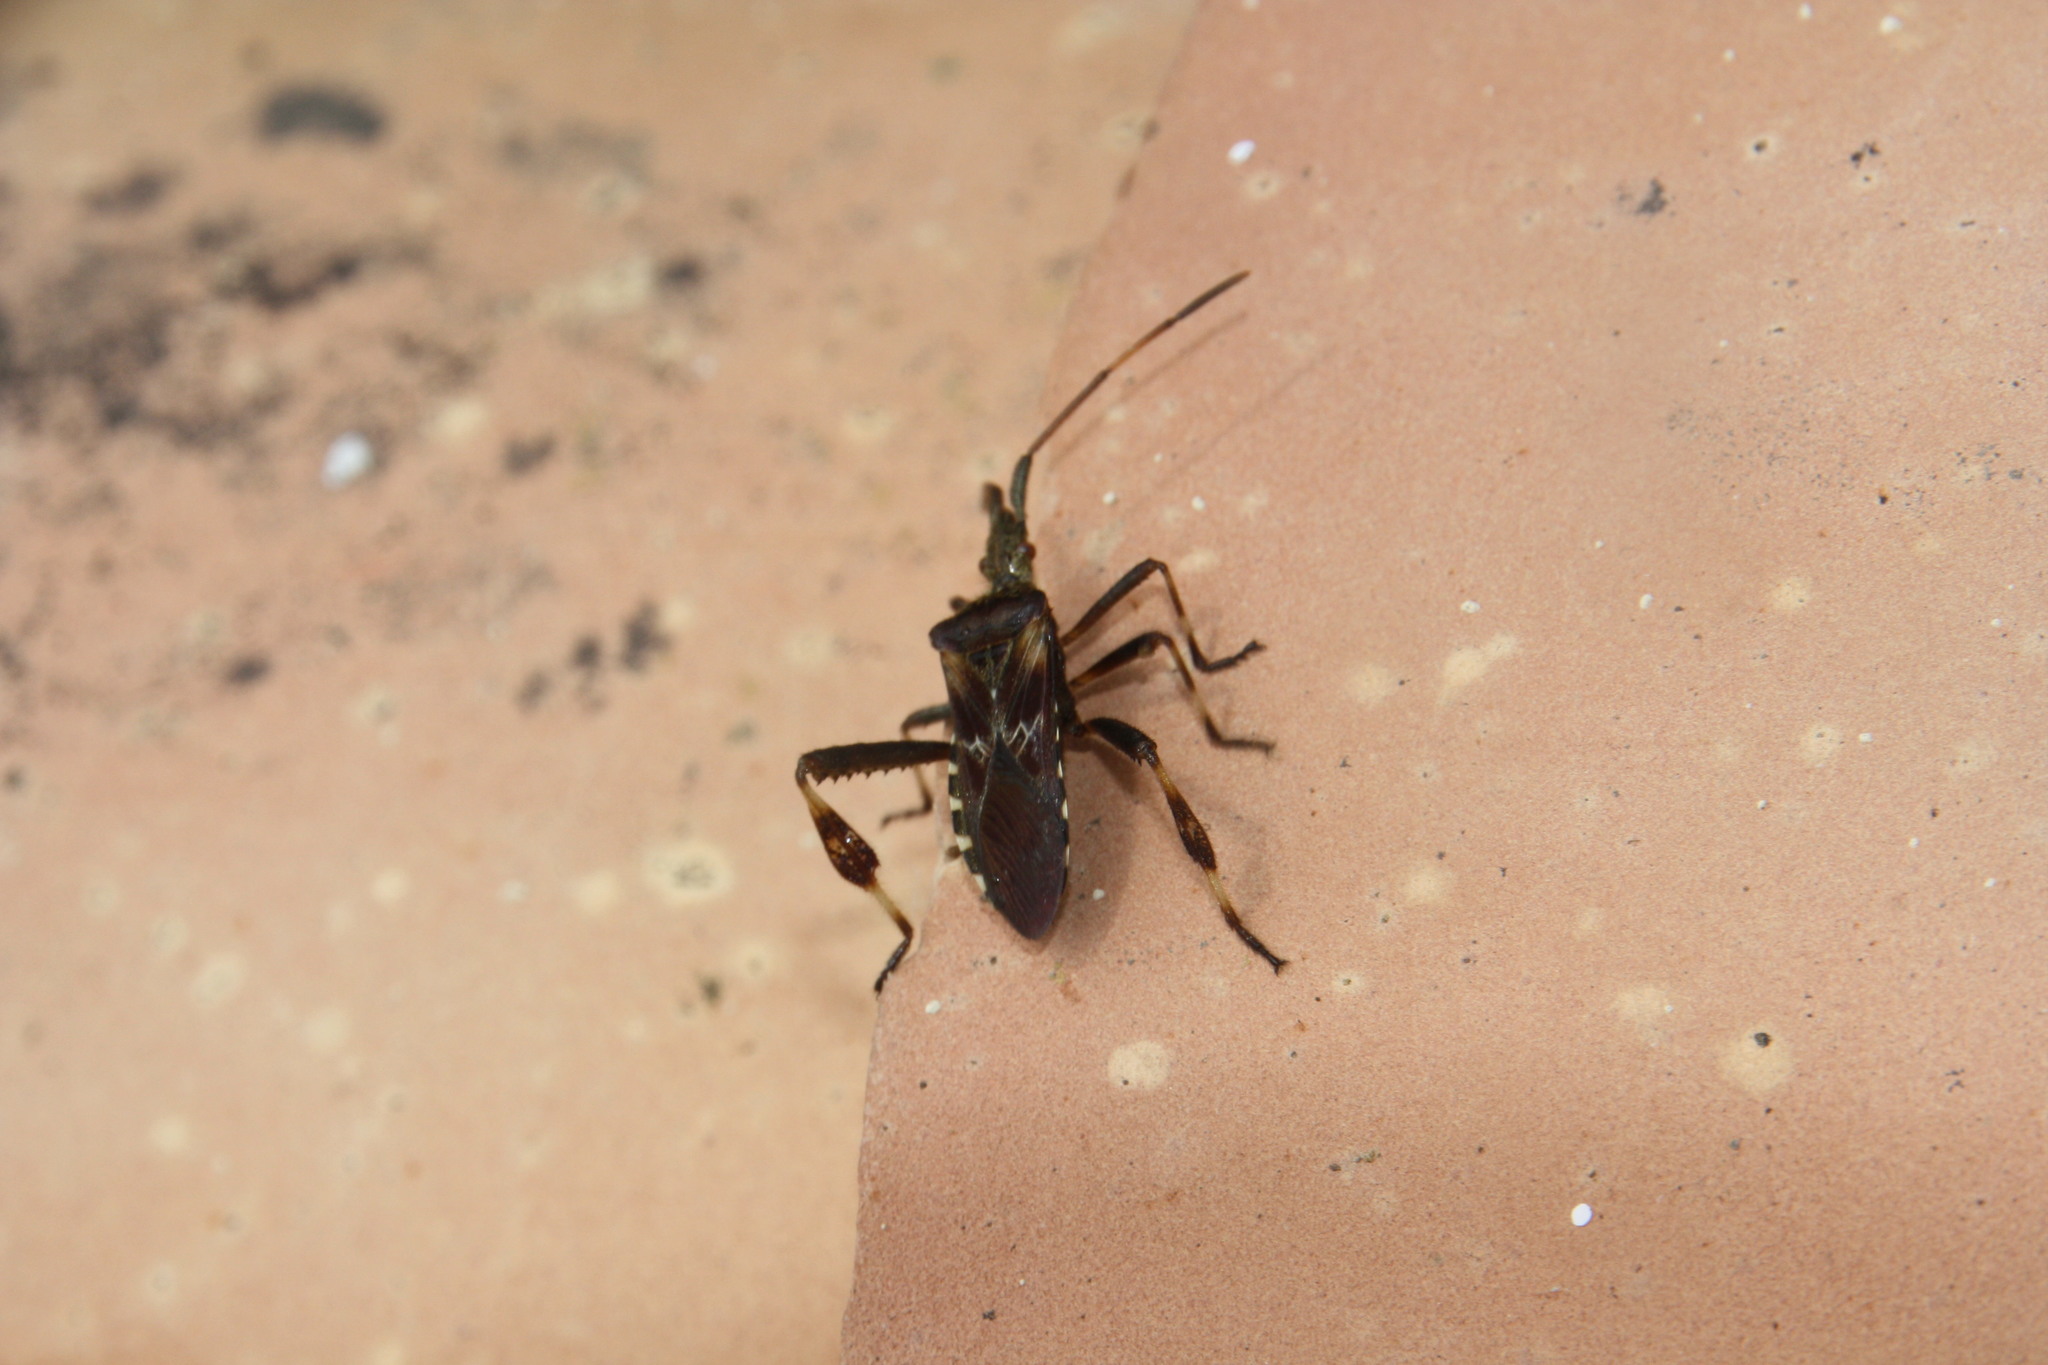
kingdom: Animalia
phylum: Arthropoda
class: Insecta
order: Hemiptera
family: Coreidae
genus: Leptoglossus
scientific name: Leptoglossus occidentalis
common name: Western conifer-seed bug
